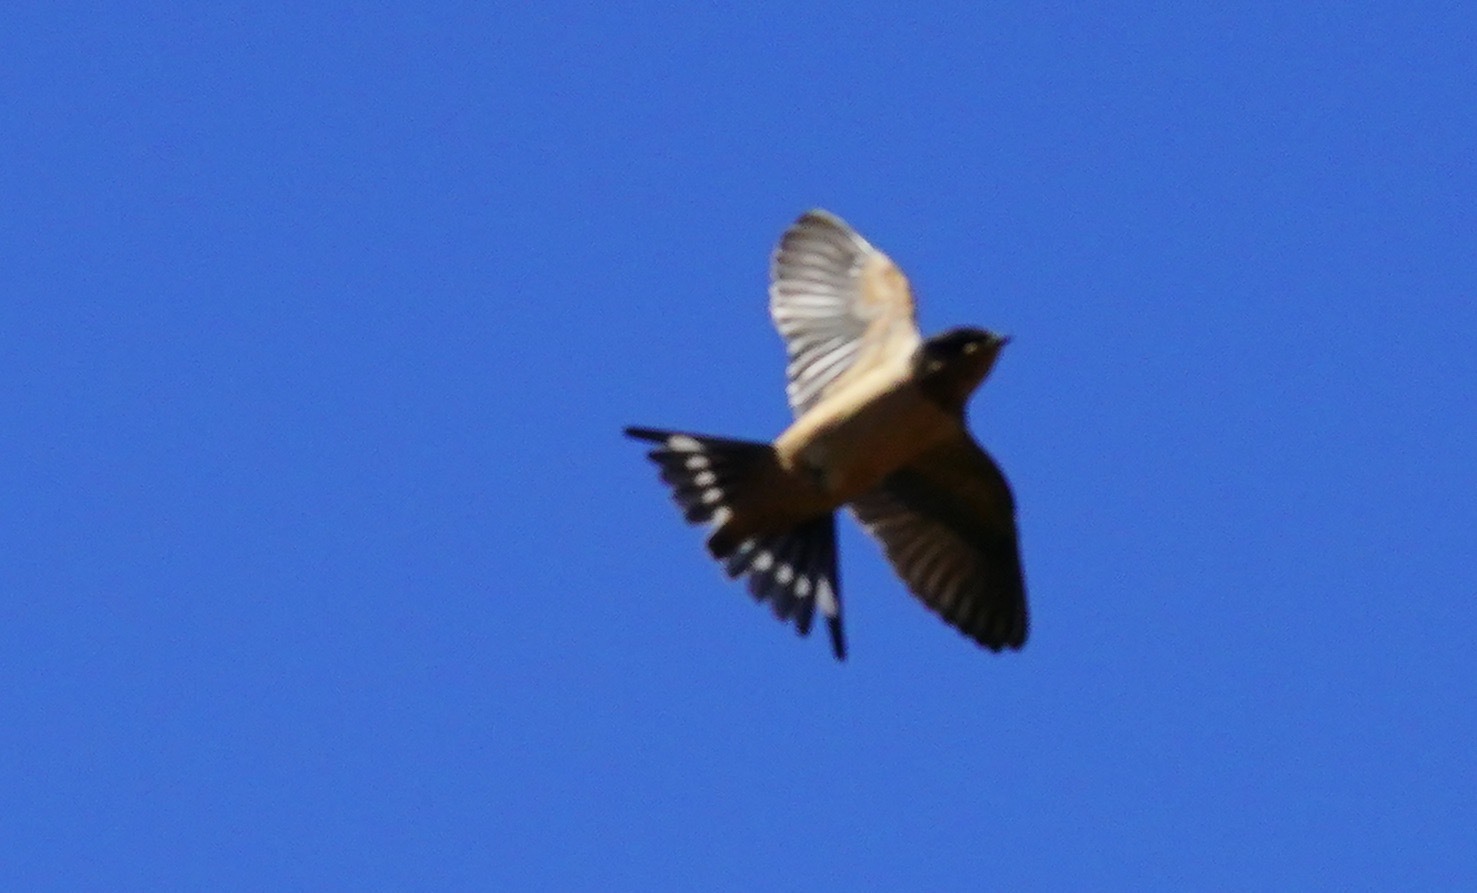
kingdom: Animalia
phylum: Chordata
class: Aves
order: Passeriformes
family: Hirundinidae
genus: Hirundo
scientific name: Hirundo rustica
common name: Barn swallow
